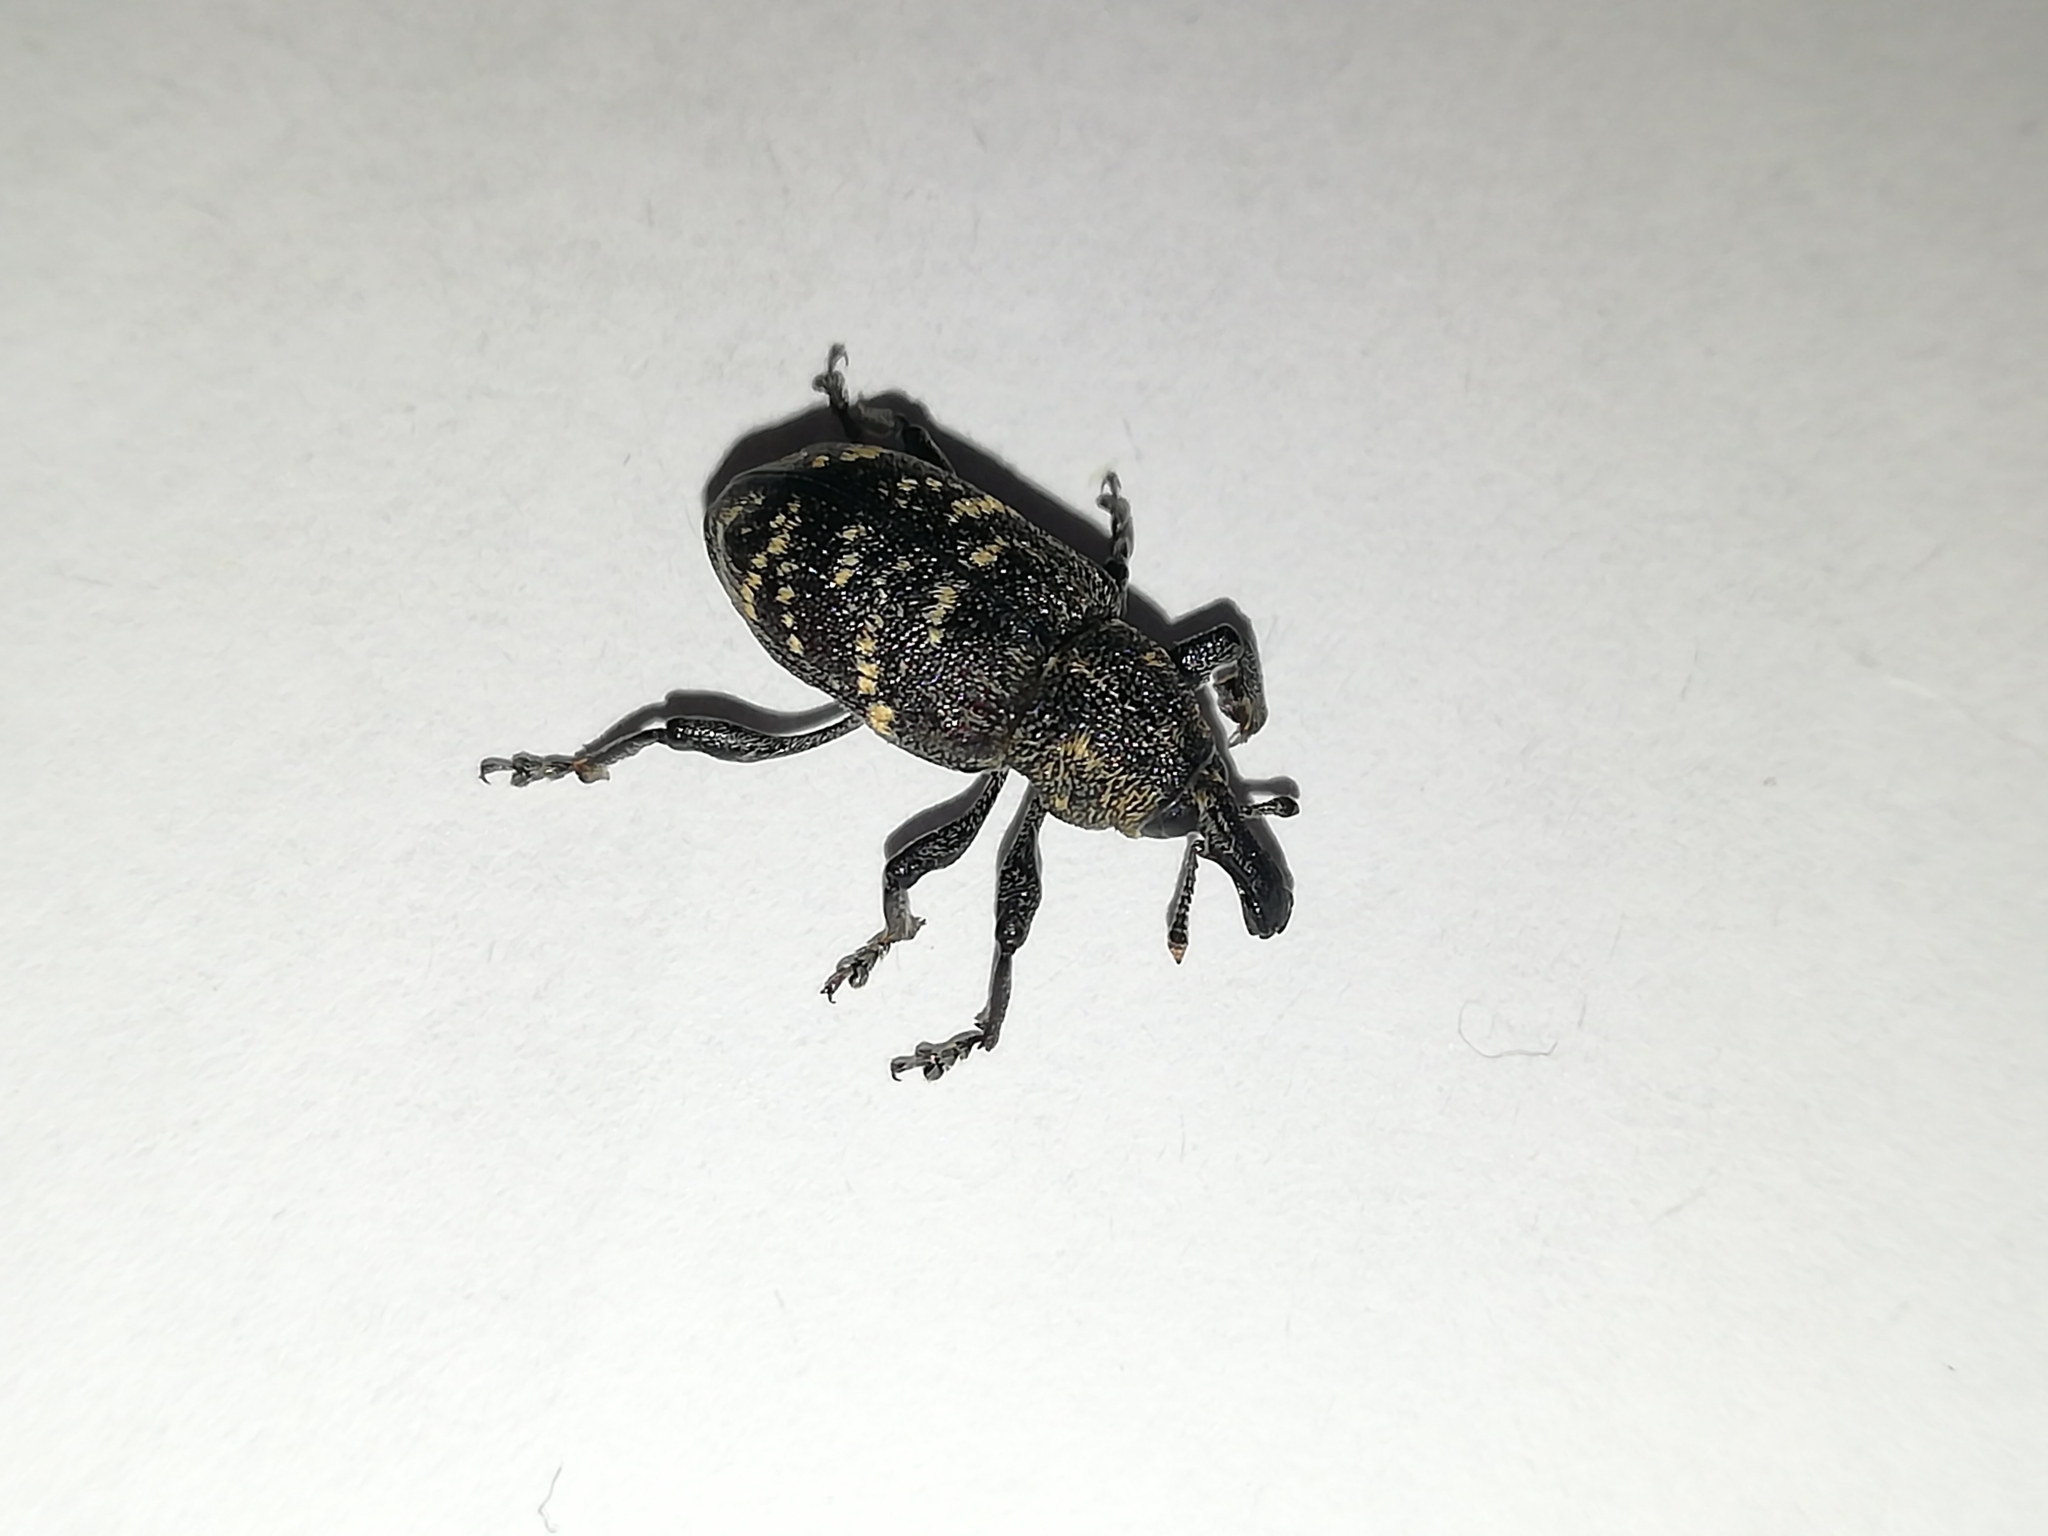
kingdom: Animalia
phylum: Arthropoda
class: Insecta
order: Coleoptera
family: Curculionidae
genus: Hylobius
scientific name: Hylobius abietis
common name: Large pine weevil
